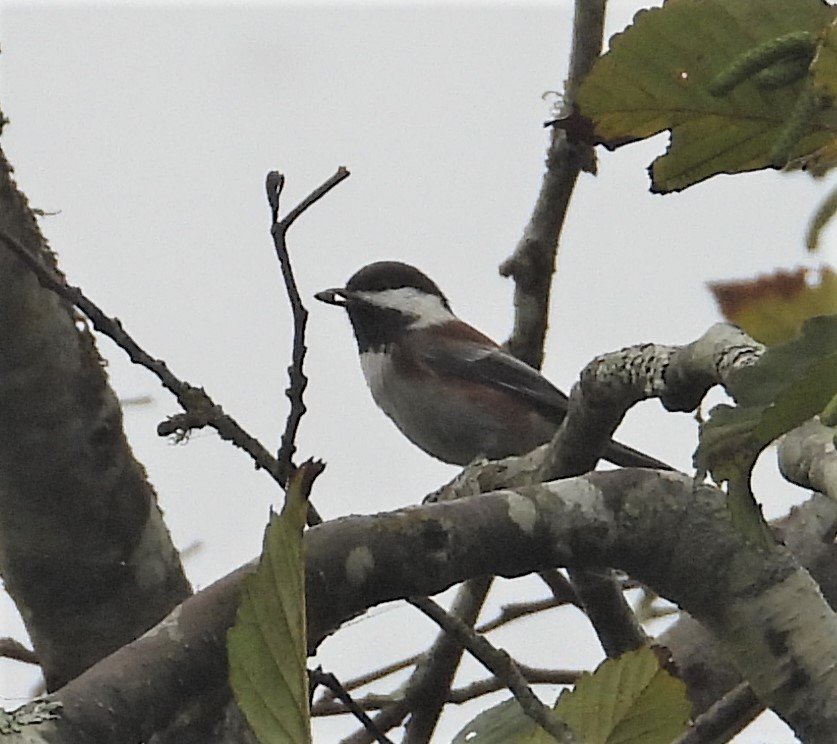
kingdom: Animalia
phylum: Chordata
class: Aves
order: Passeriformes
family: Paridae
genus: Poecile
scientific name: Poecile rufescens
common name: Chestnut-backed chickadee
